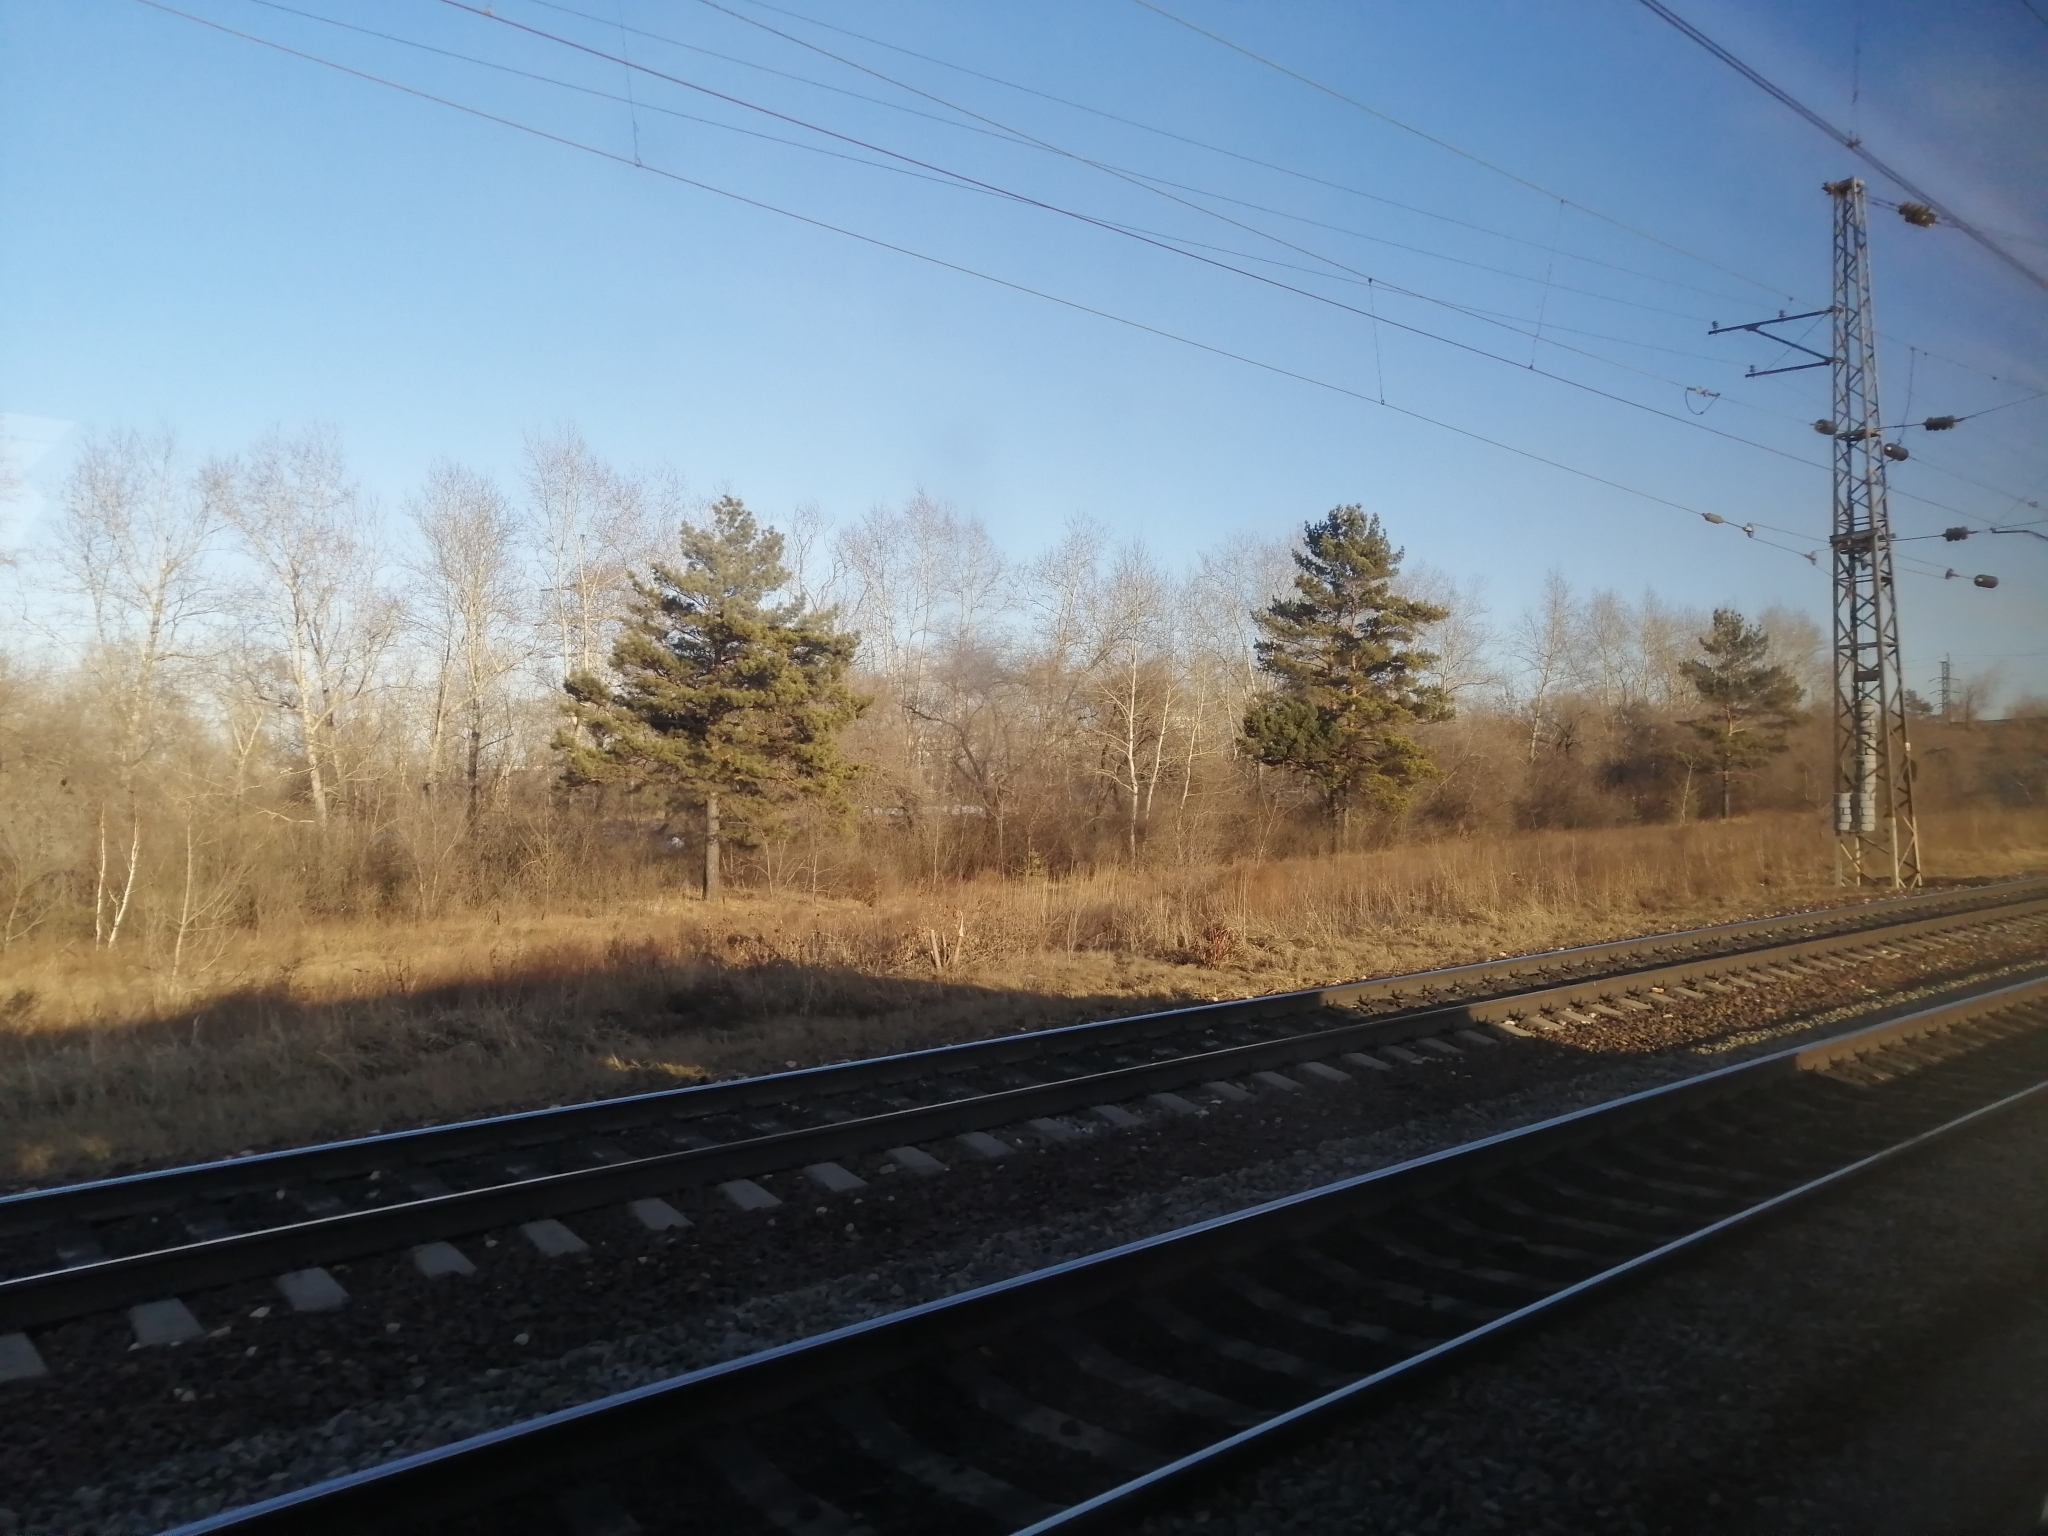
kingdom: Plantae
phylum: Tracheophyta
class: Pinopsida
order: Pinales
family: Pinaceae
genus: Pinus
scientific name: Pinus sylvestris
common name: Scots pine
